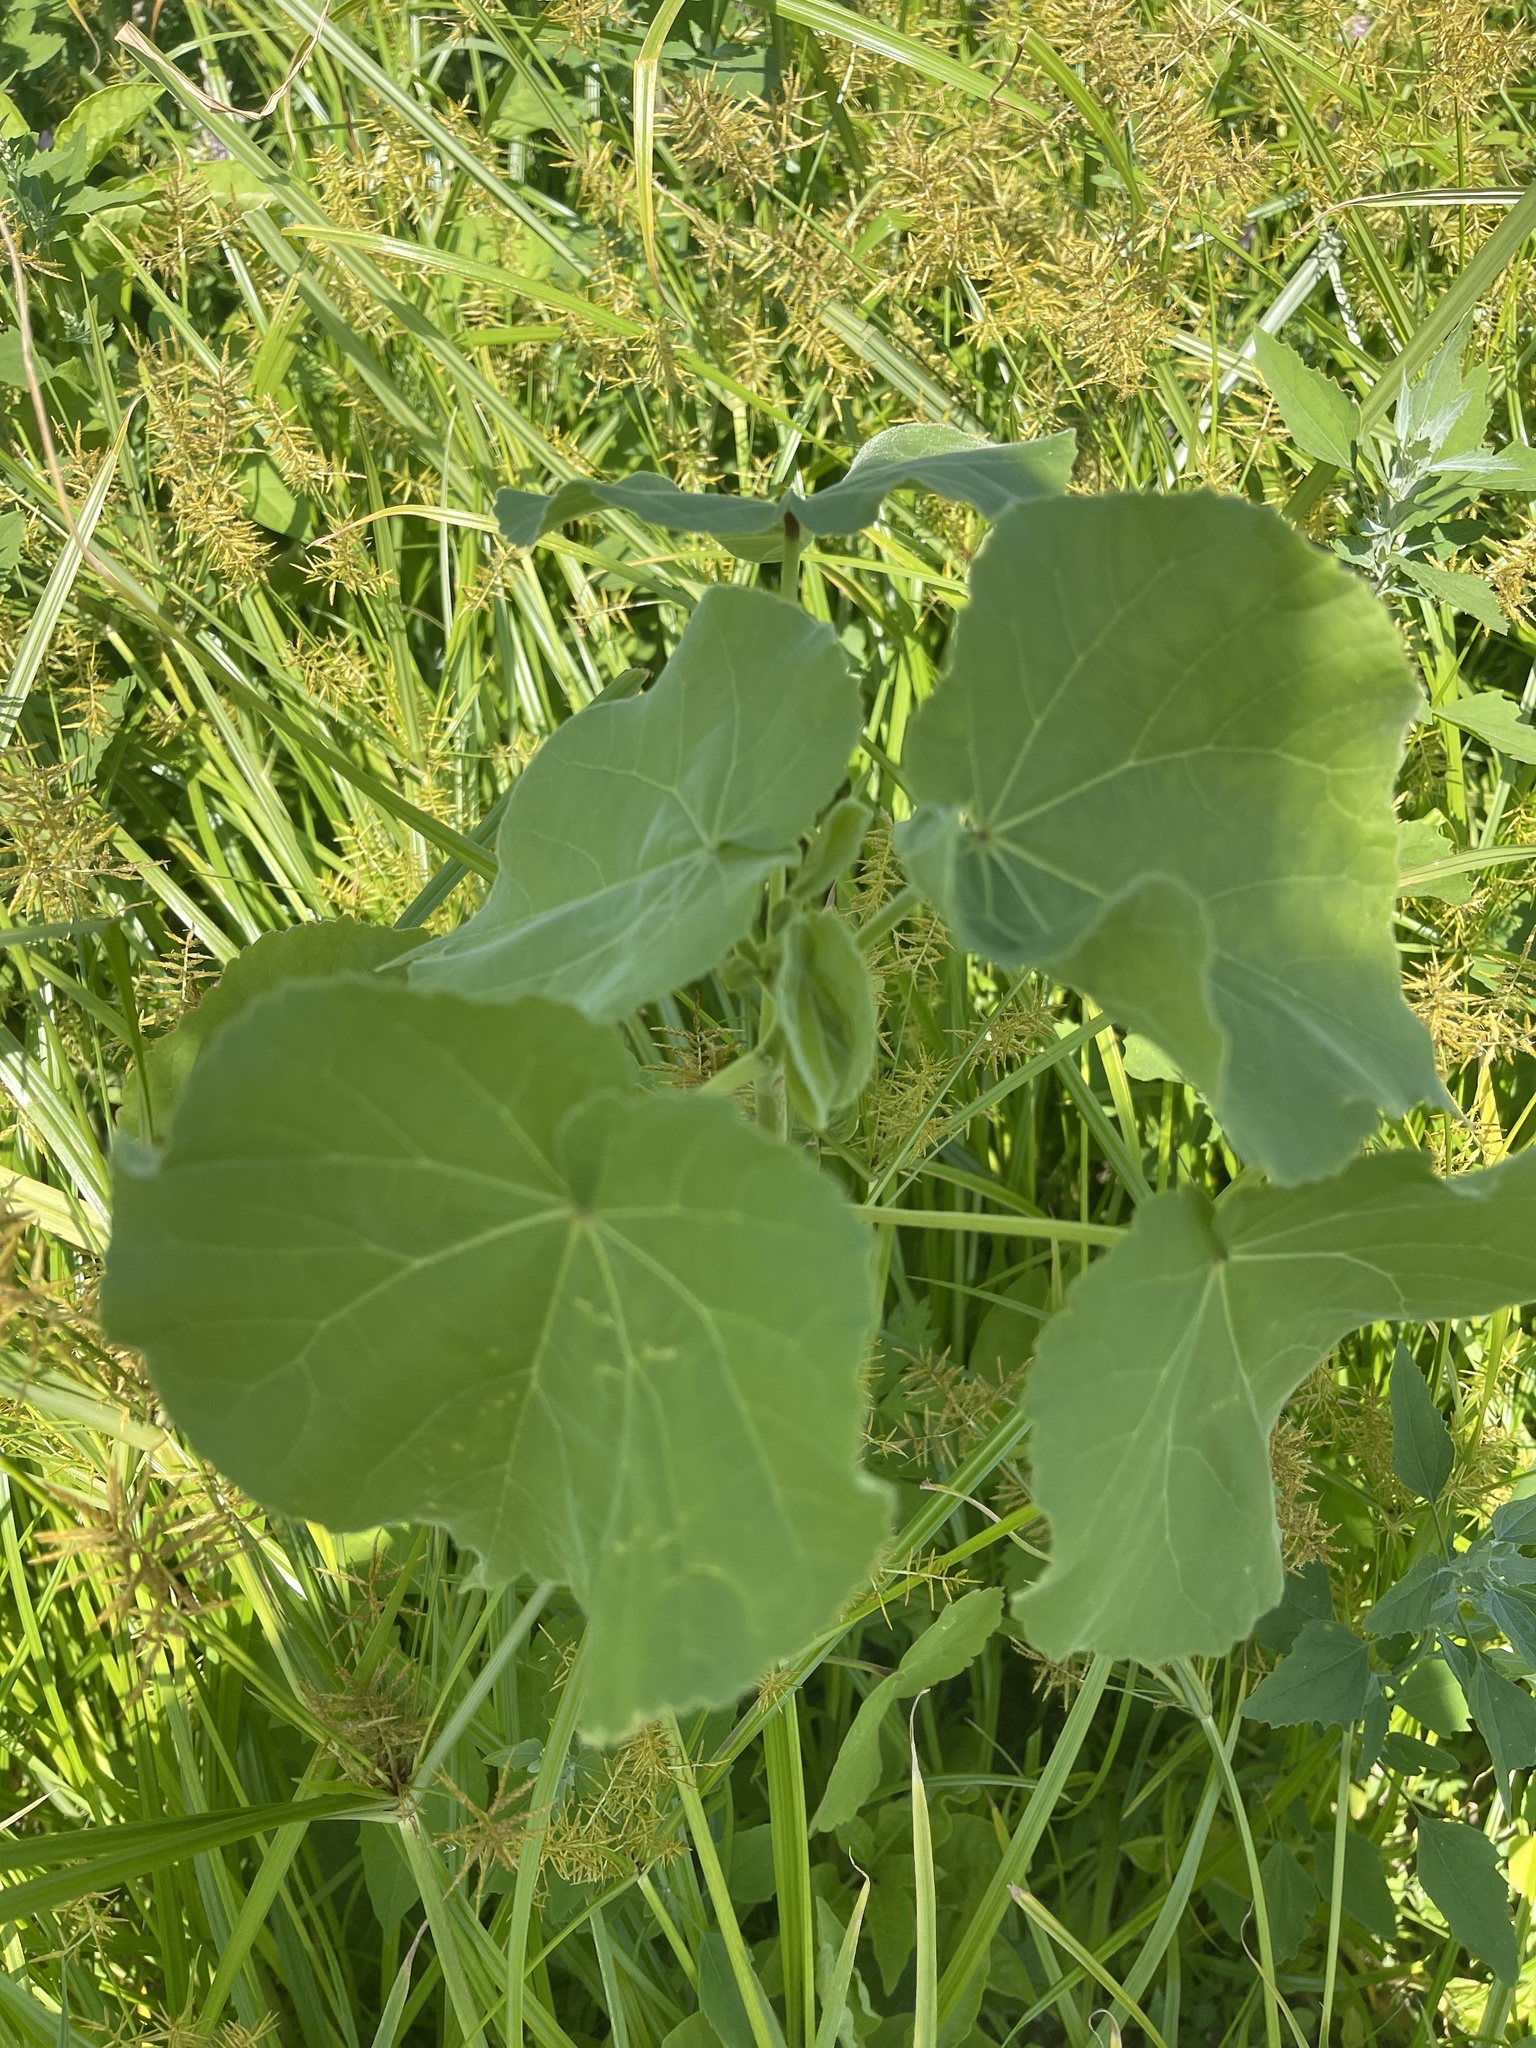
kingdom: Plantae
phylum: Tracheophyta
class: Magnoliopsida
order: Malvales
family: Malvaceae
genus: Abutilon
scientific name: Abutilon theophrasti
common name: Velvetleaf
